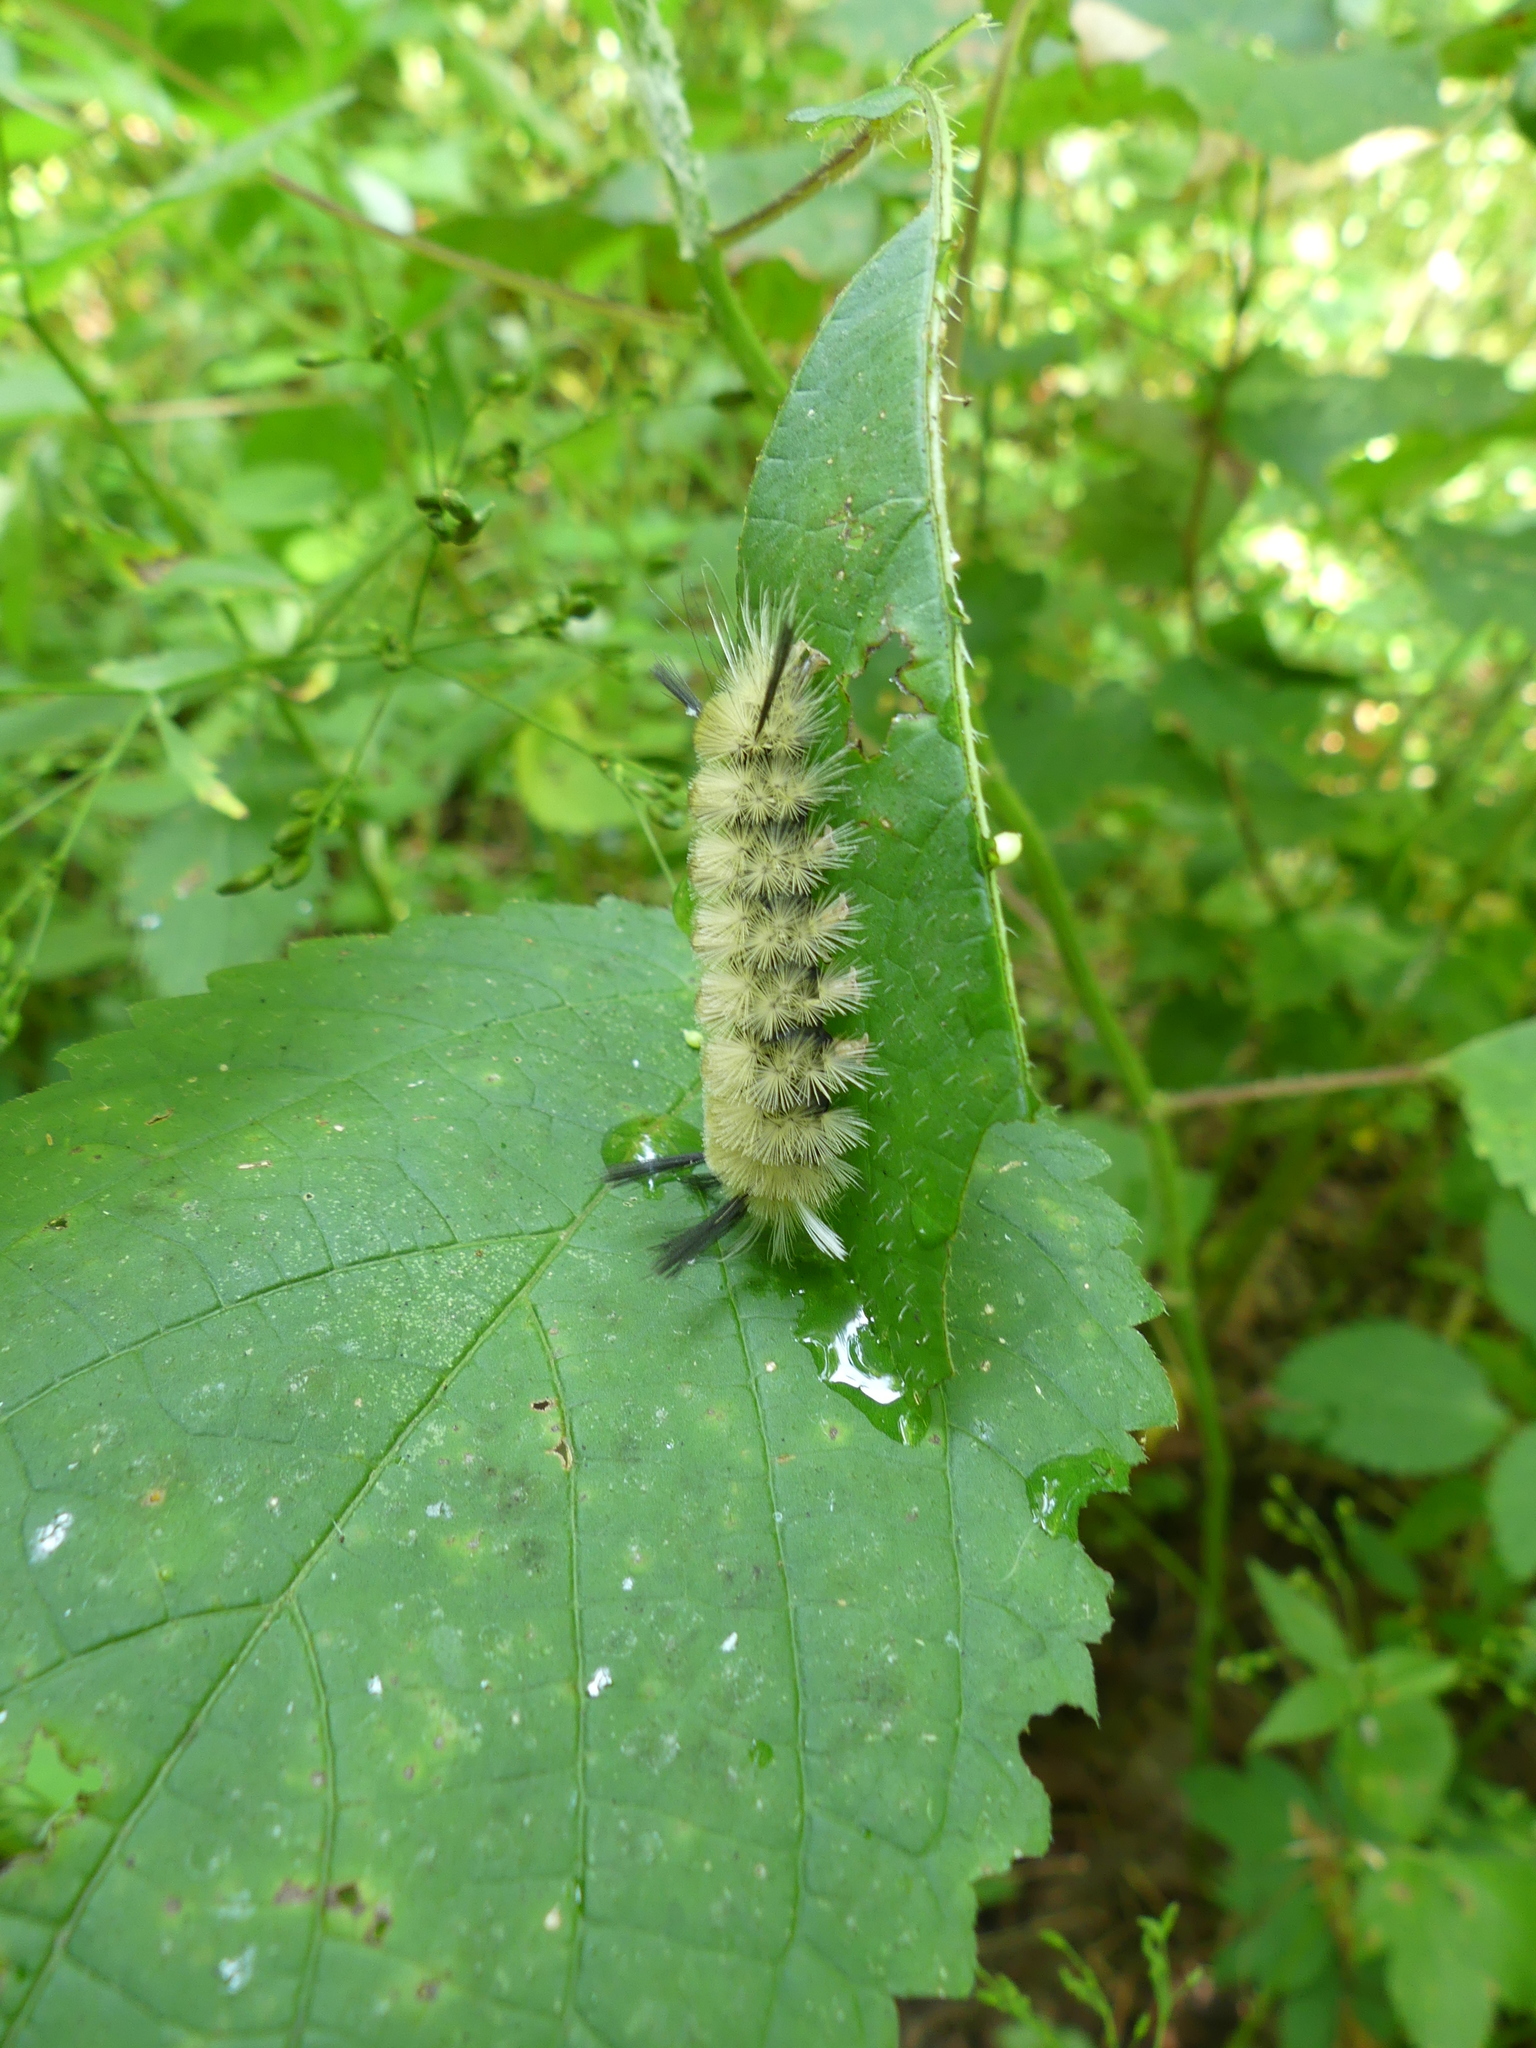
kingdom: Animalia
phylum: Arthropoda
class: Insecta
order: Lepidoptera
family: Erebidae
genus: Halysidota
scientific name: Halysidota tessellaris
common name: Banded tussock moth
